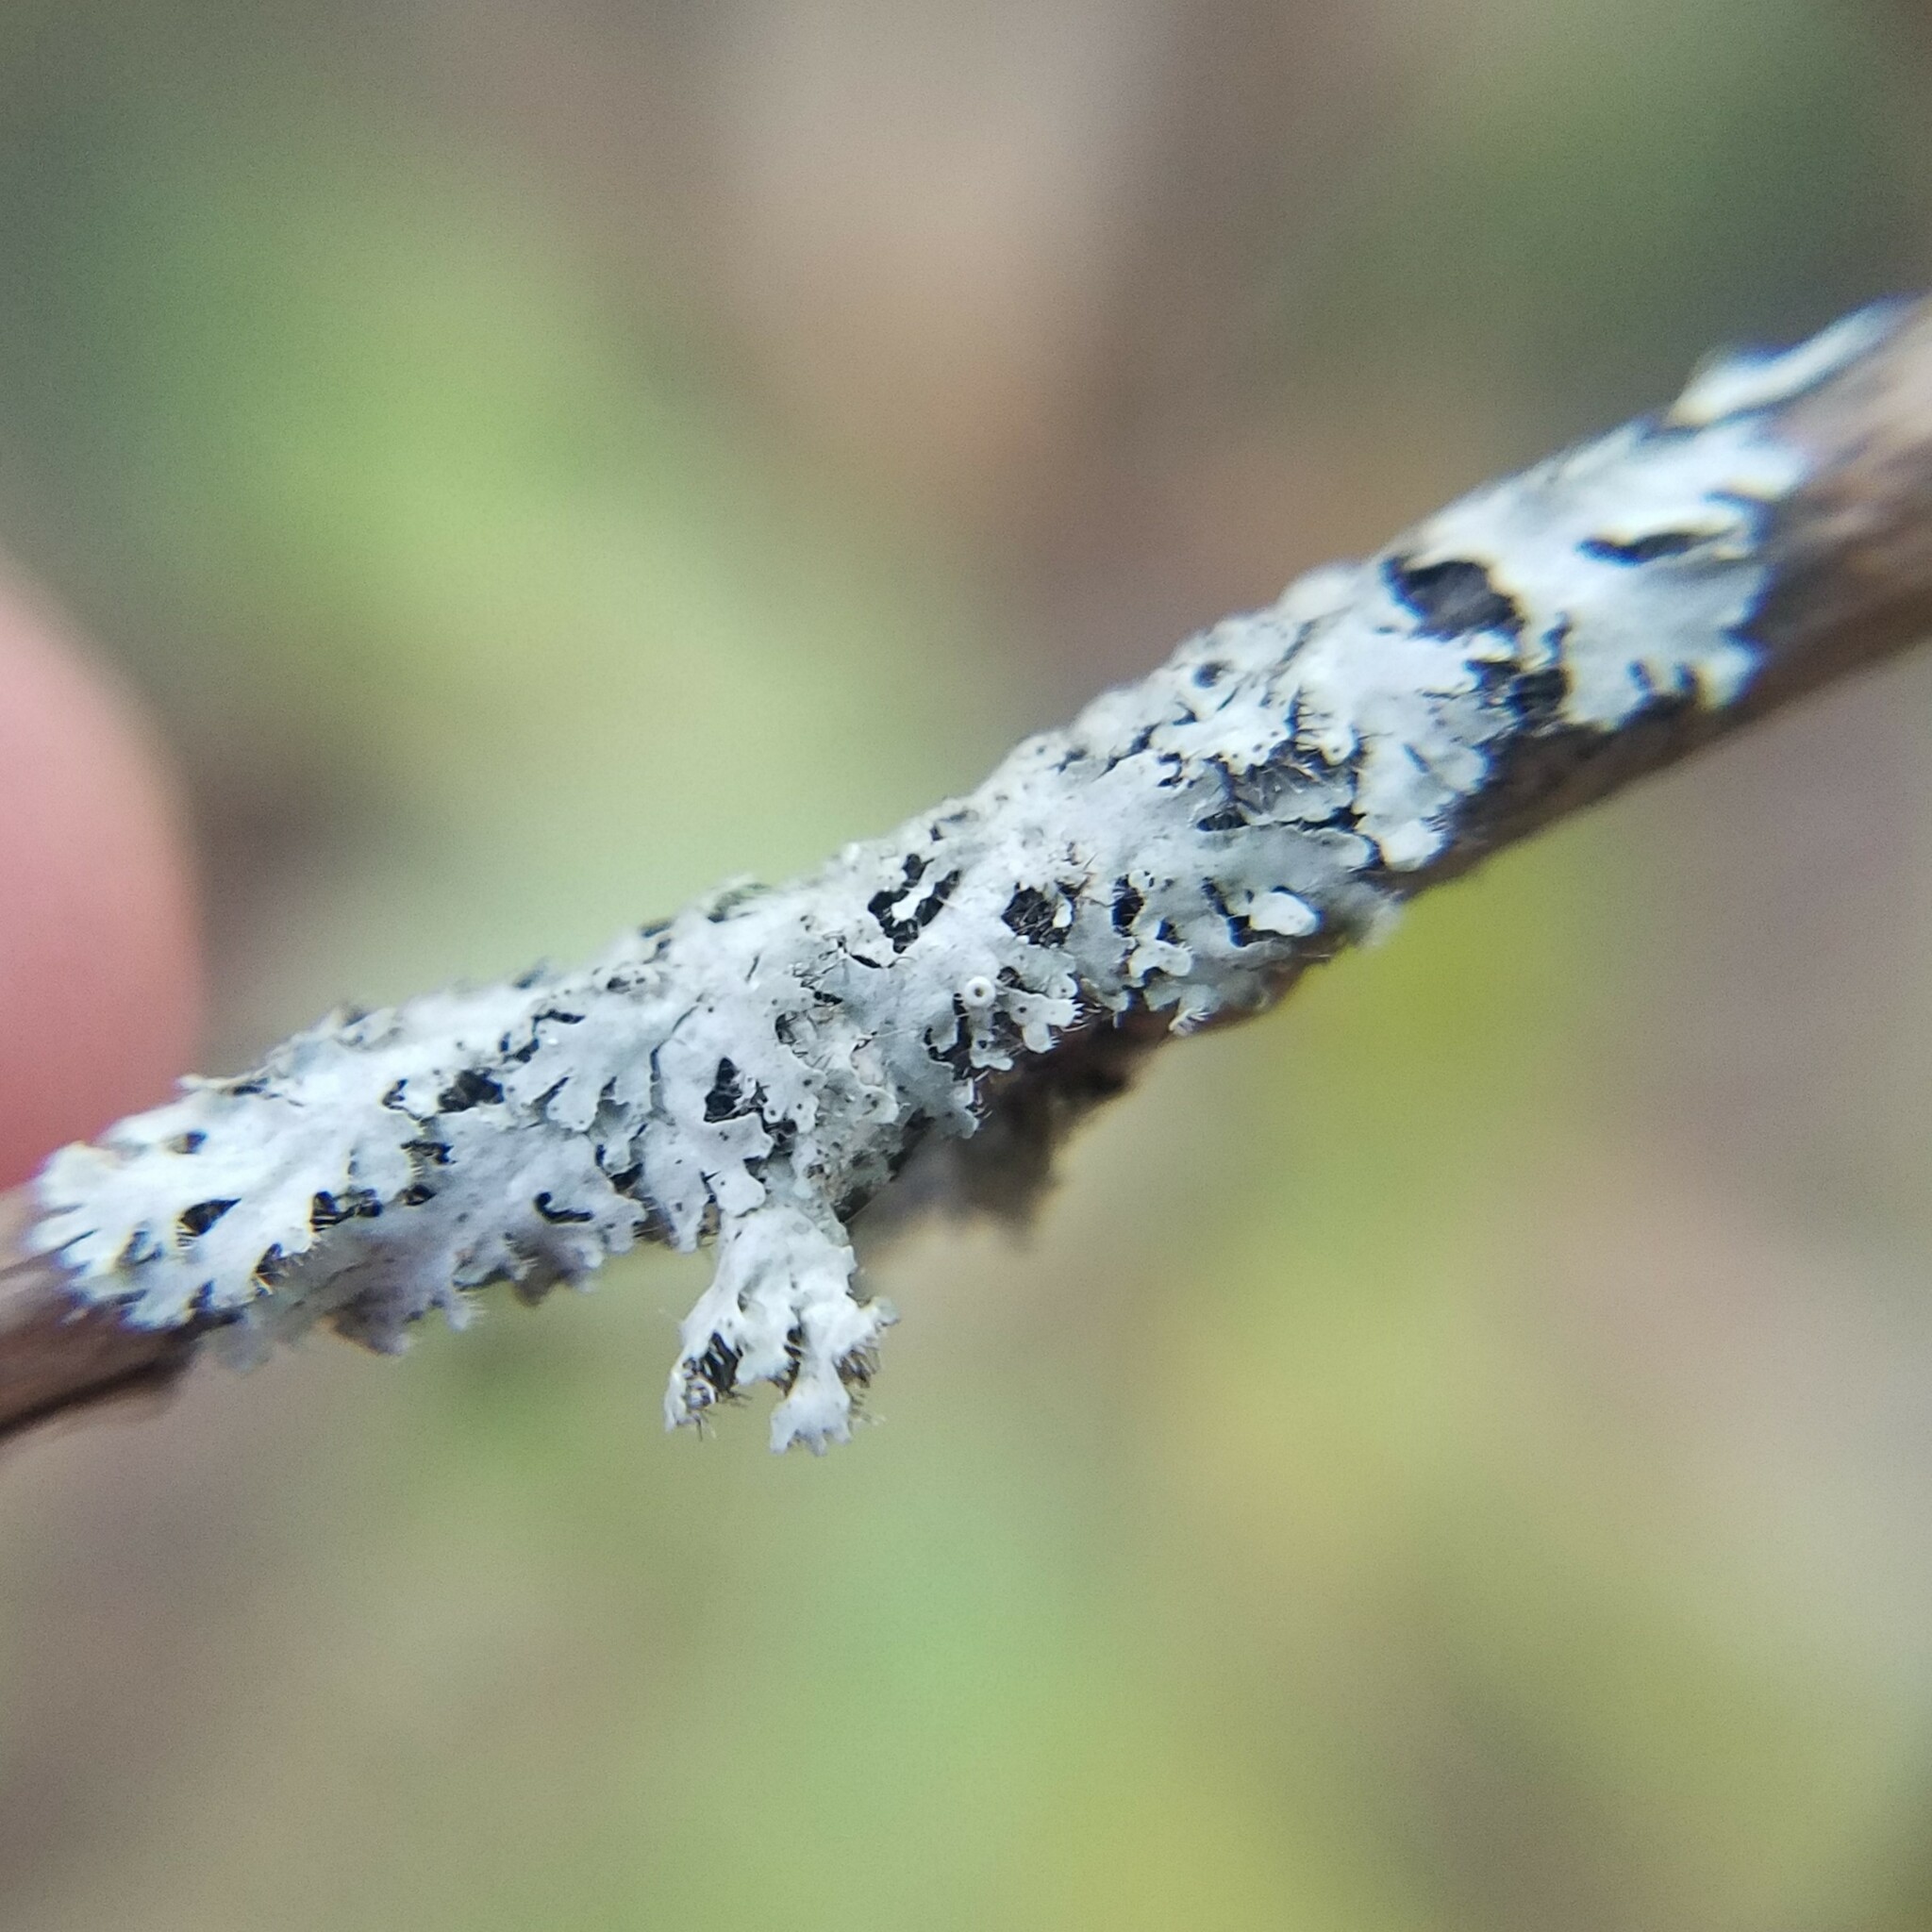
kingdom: Fungi
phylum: Ascomycota
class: Lecanoromycetes
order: Caliciales
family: Physciaceae
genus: Phaeophyscia
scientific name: Phaeophyscia ciliata
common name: Smooth shadow lichen
